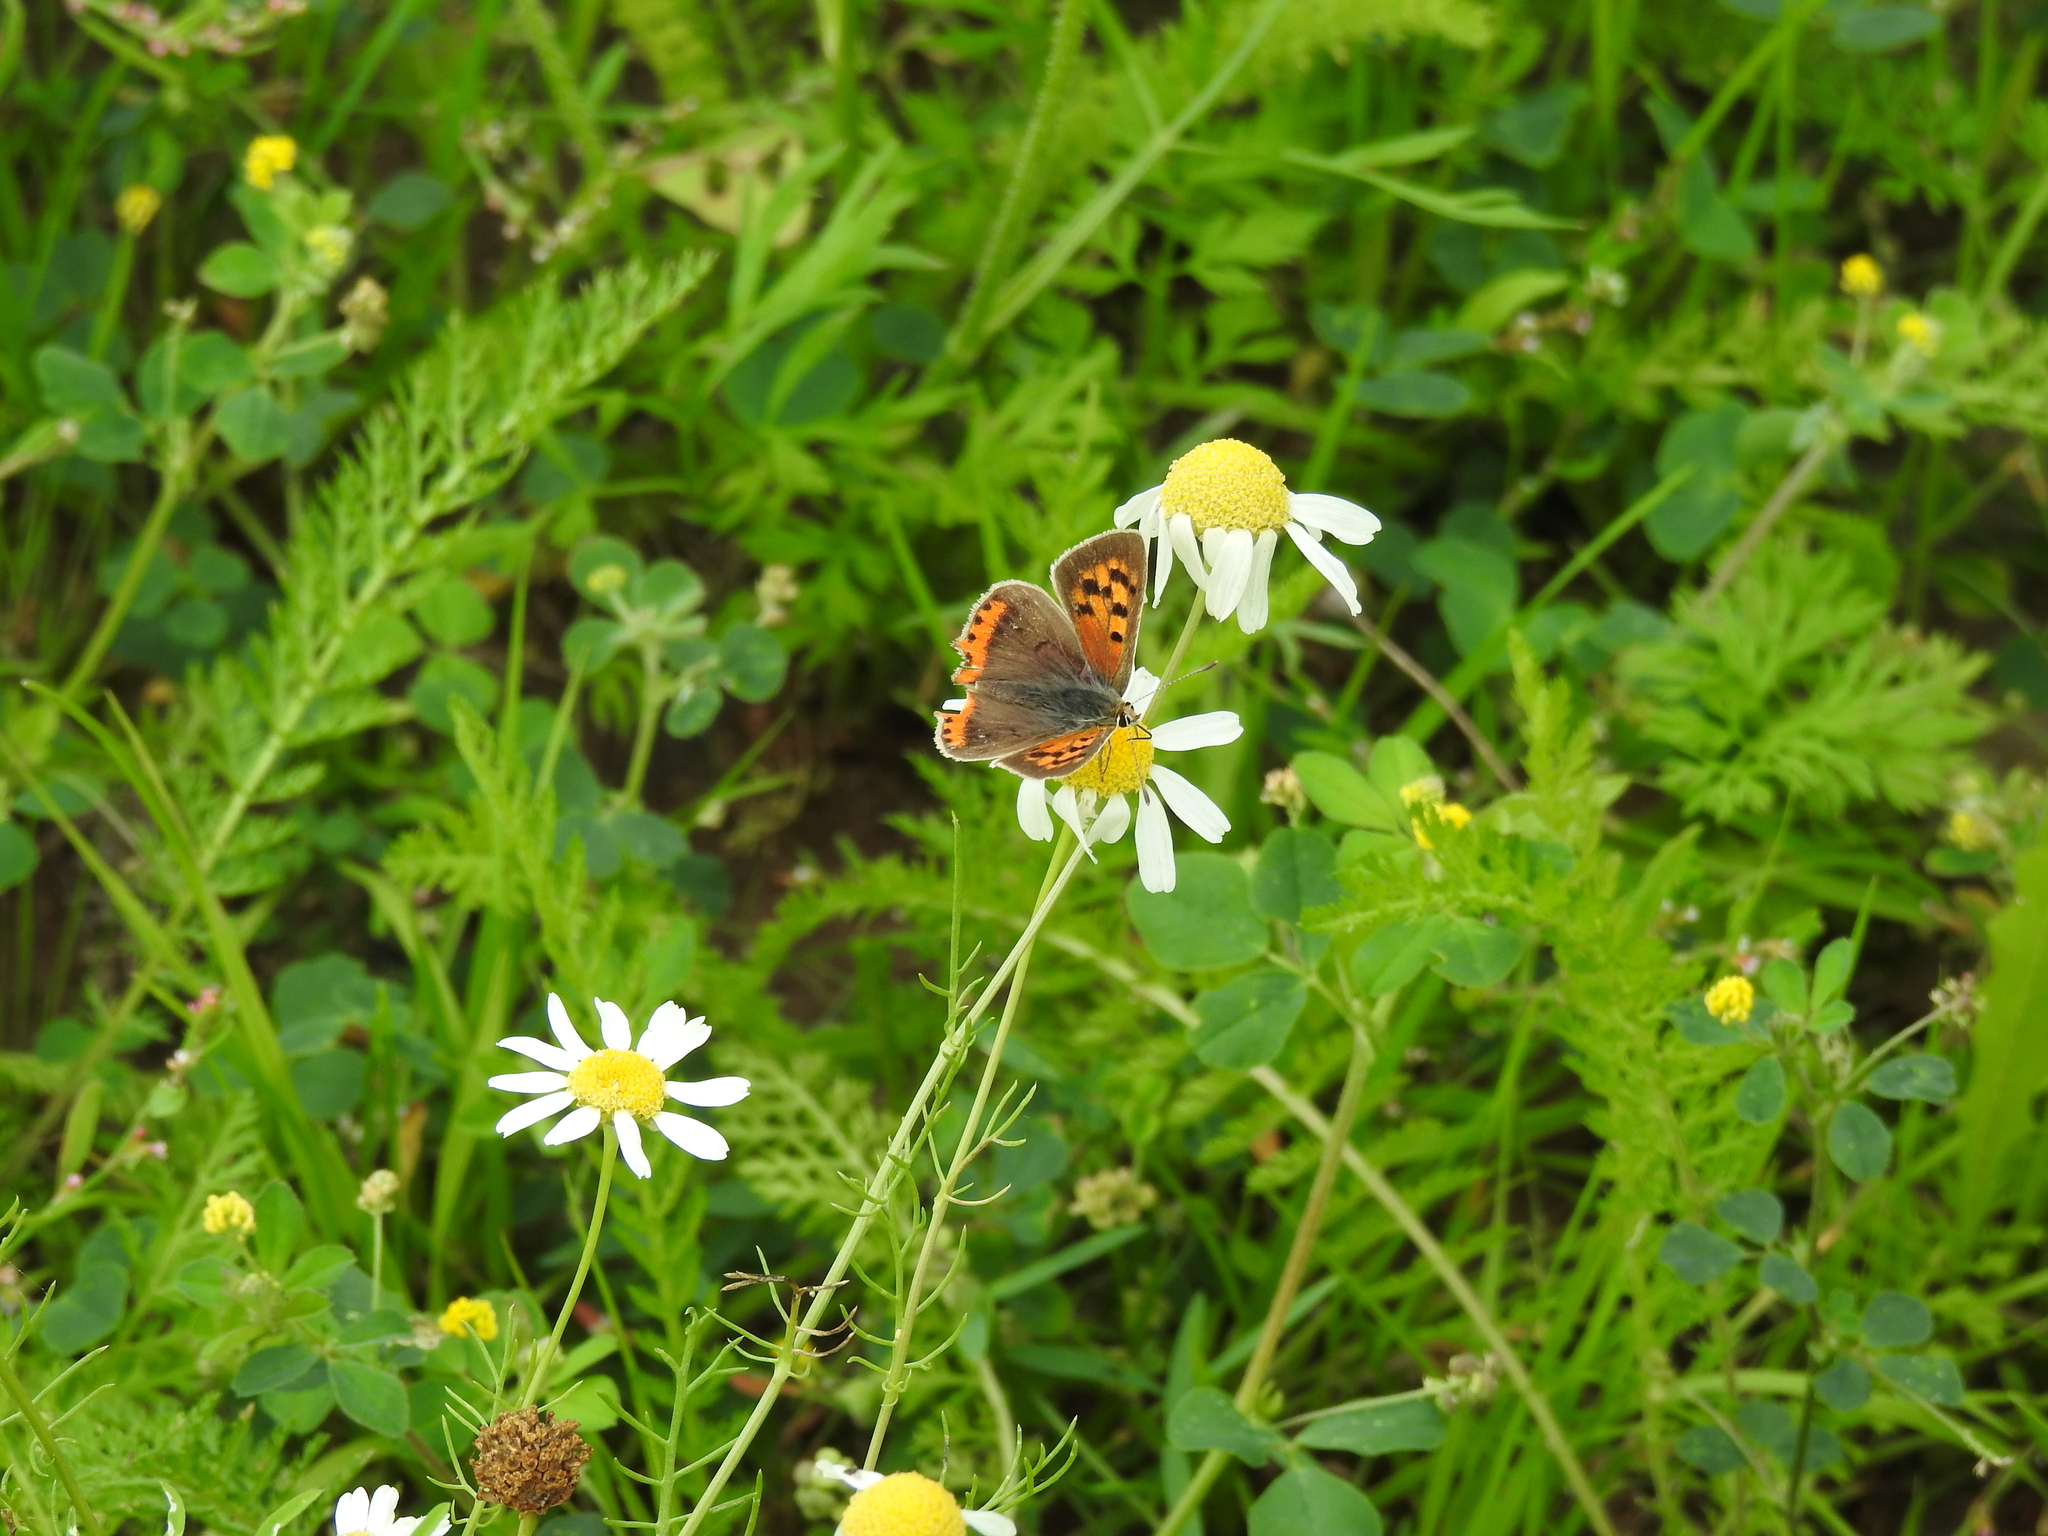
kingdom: Animalia
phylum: Arthropoda
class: Insecta
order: Lepidoptera
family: Lycaenidae
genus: Lycaena
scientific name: Lycaena phlaeas
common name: Small copper
